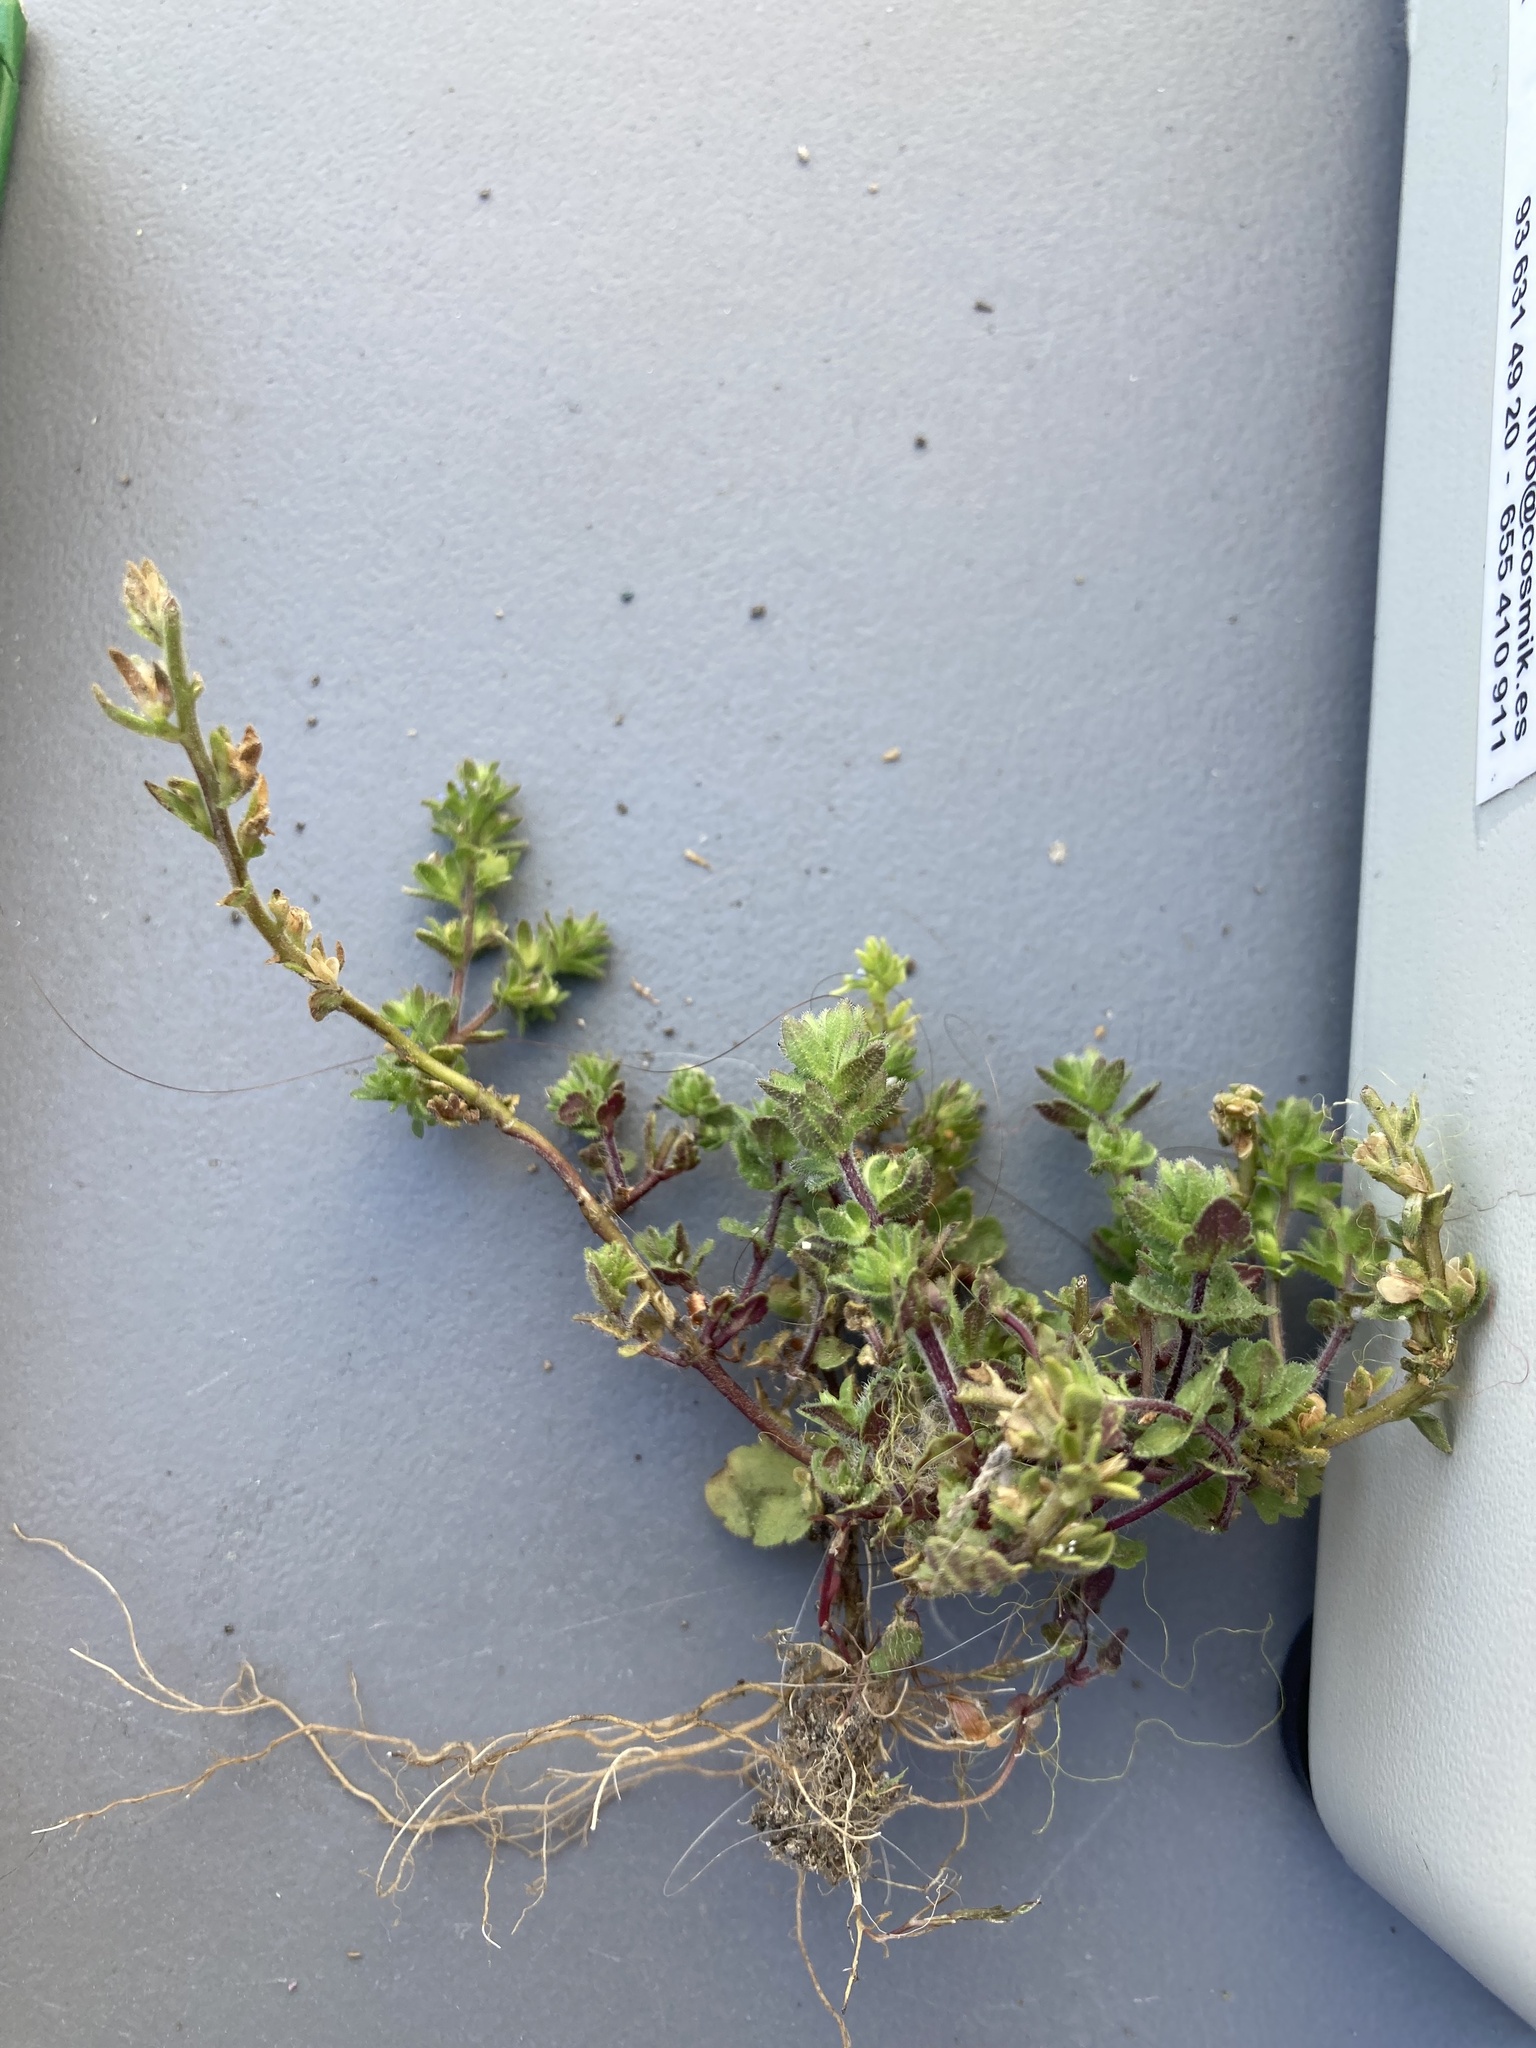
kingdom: Plantae
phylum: Tracheophyta
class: Magnoliopsida
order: Lamiales
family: Plantaginaceae
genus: Veronica
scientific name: Veronica arvensis
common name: Corn speedwell
